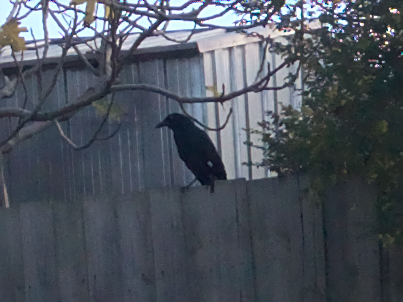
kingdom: Animalia
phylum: Chordata
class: Aves
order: Passeriformes
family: Cracticidae
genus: Strepera
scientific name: Strepera graculina
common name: Pied currawong
